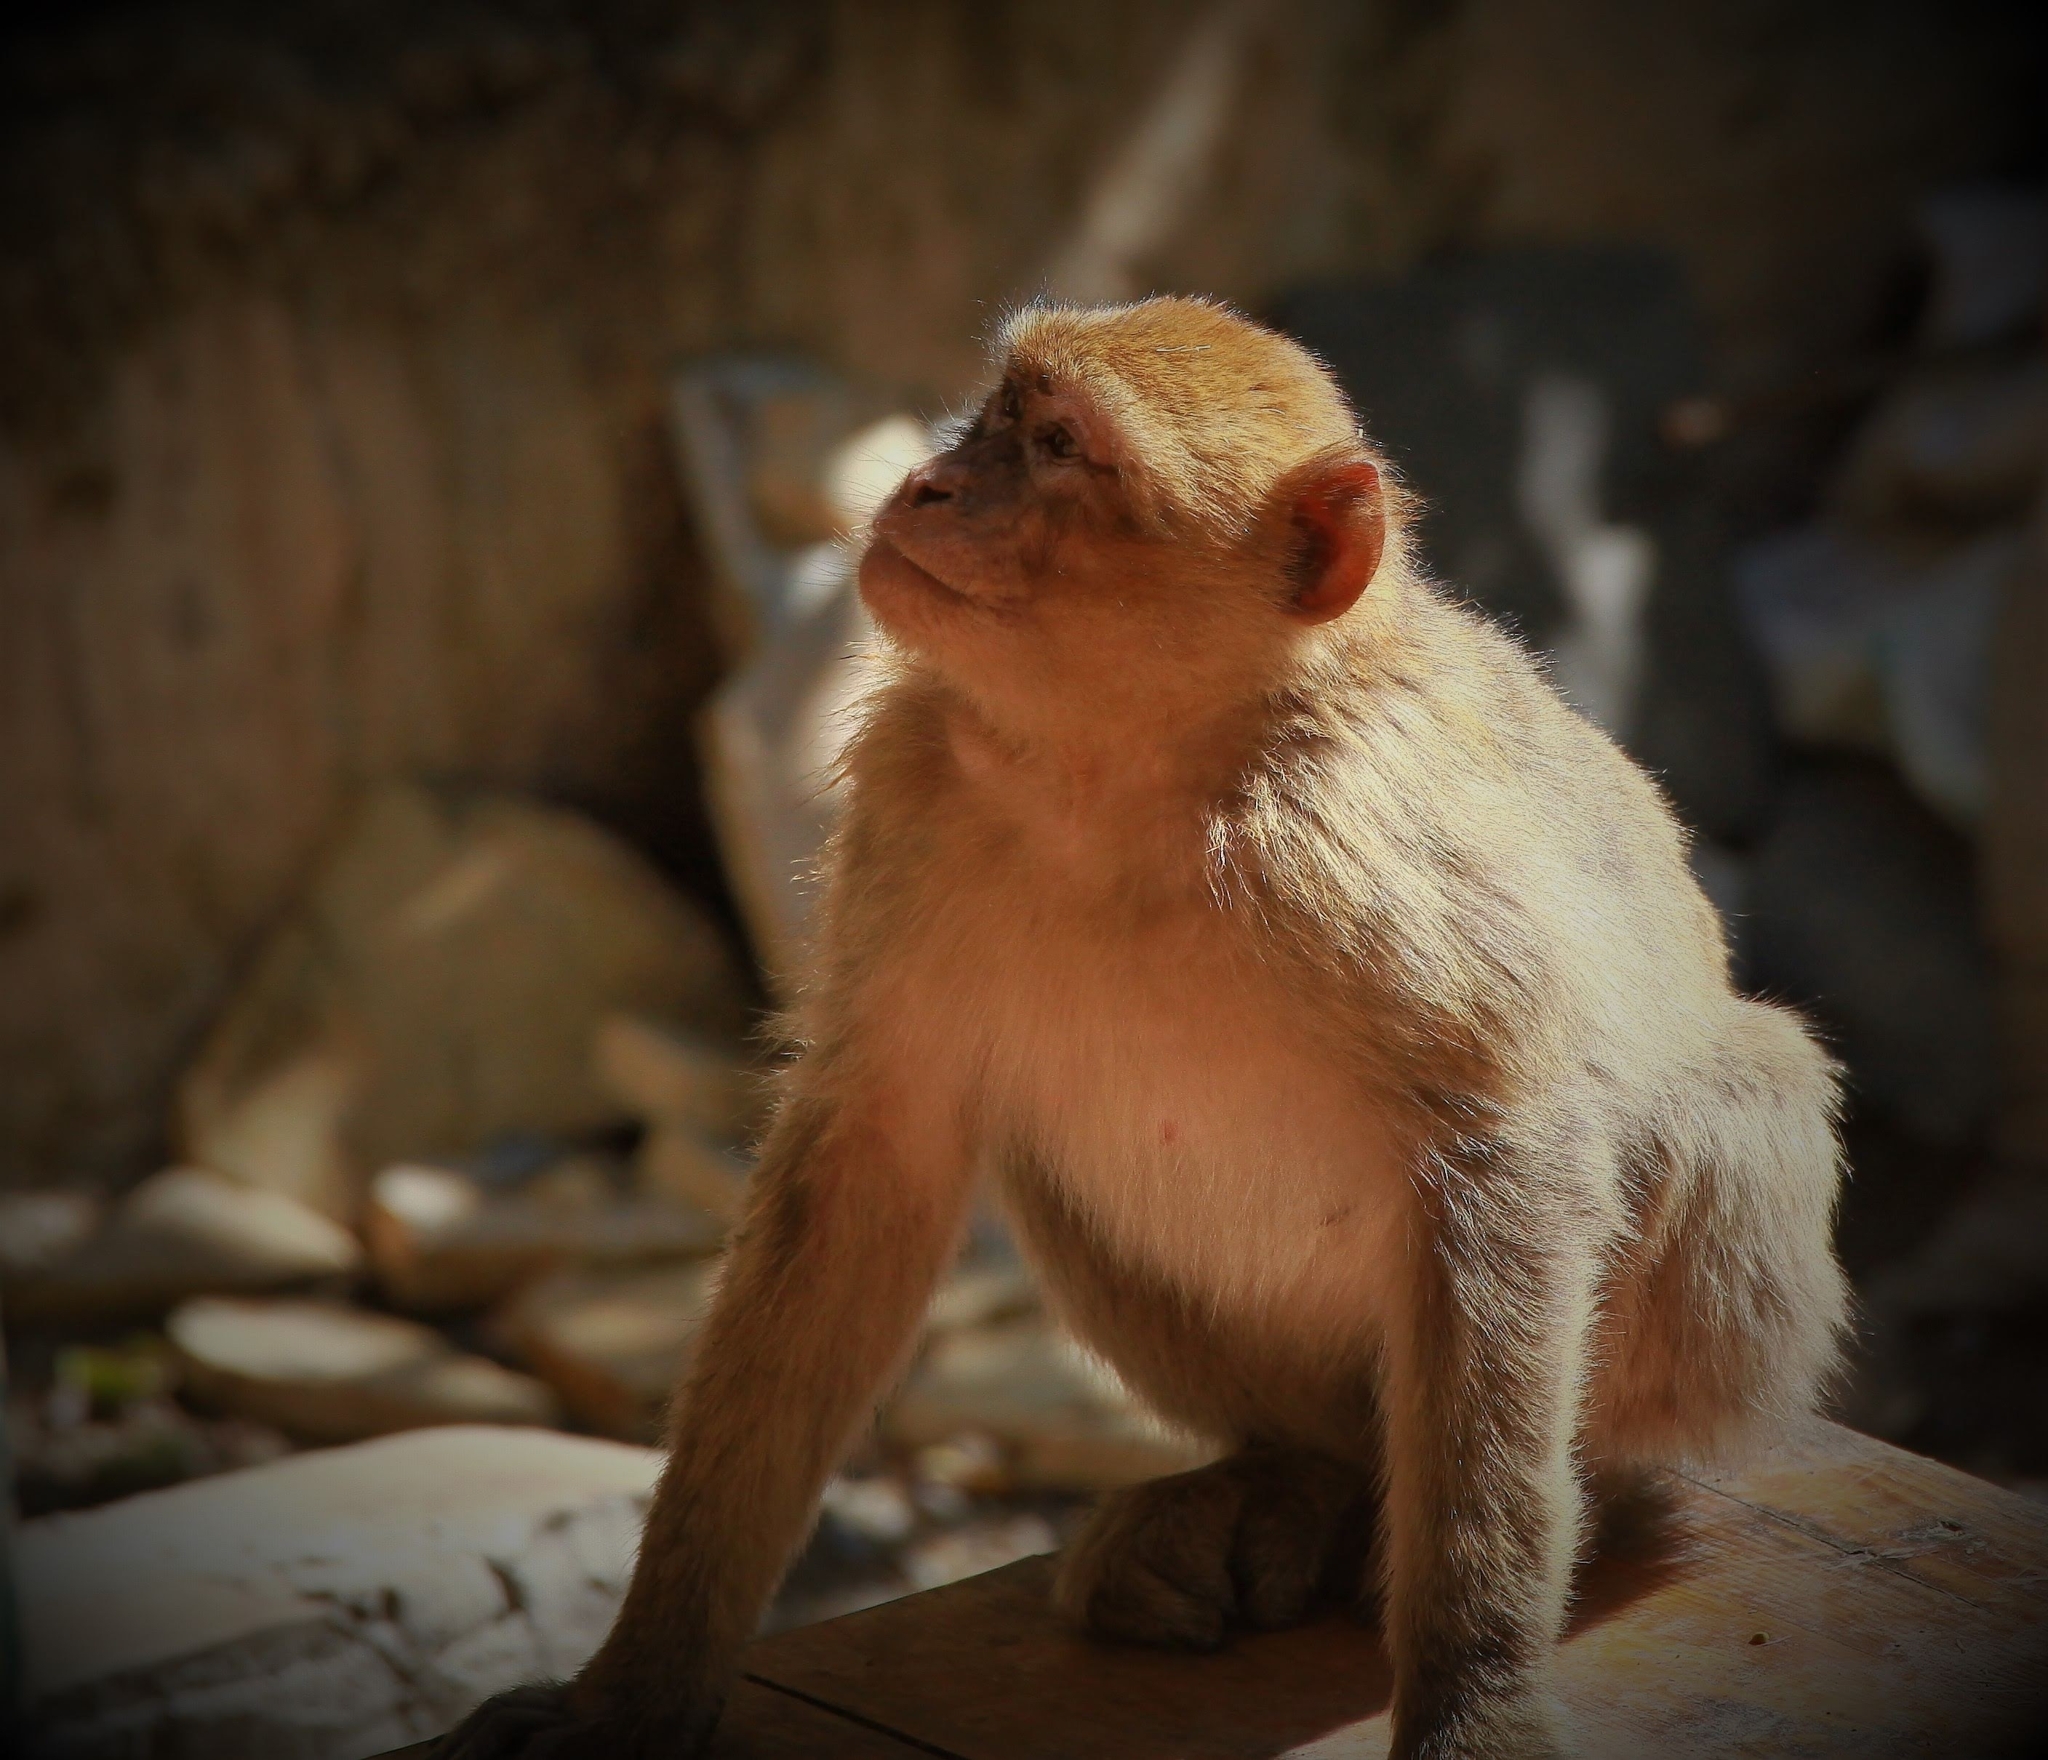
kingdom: Animalia
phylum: Chordata
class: Mammalia
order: Primates
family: Cercopithecidae
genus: Macaca
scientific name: Macaca sylvanus
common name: Barbary macaque
